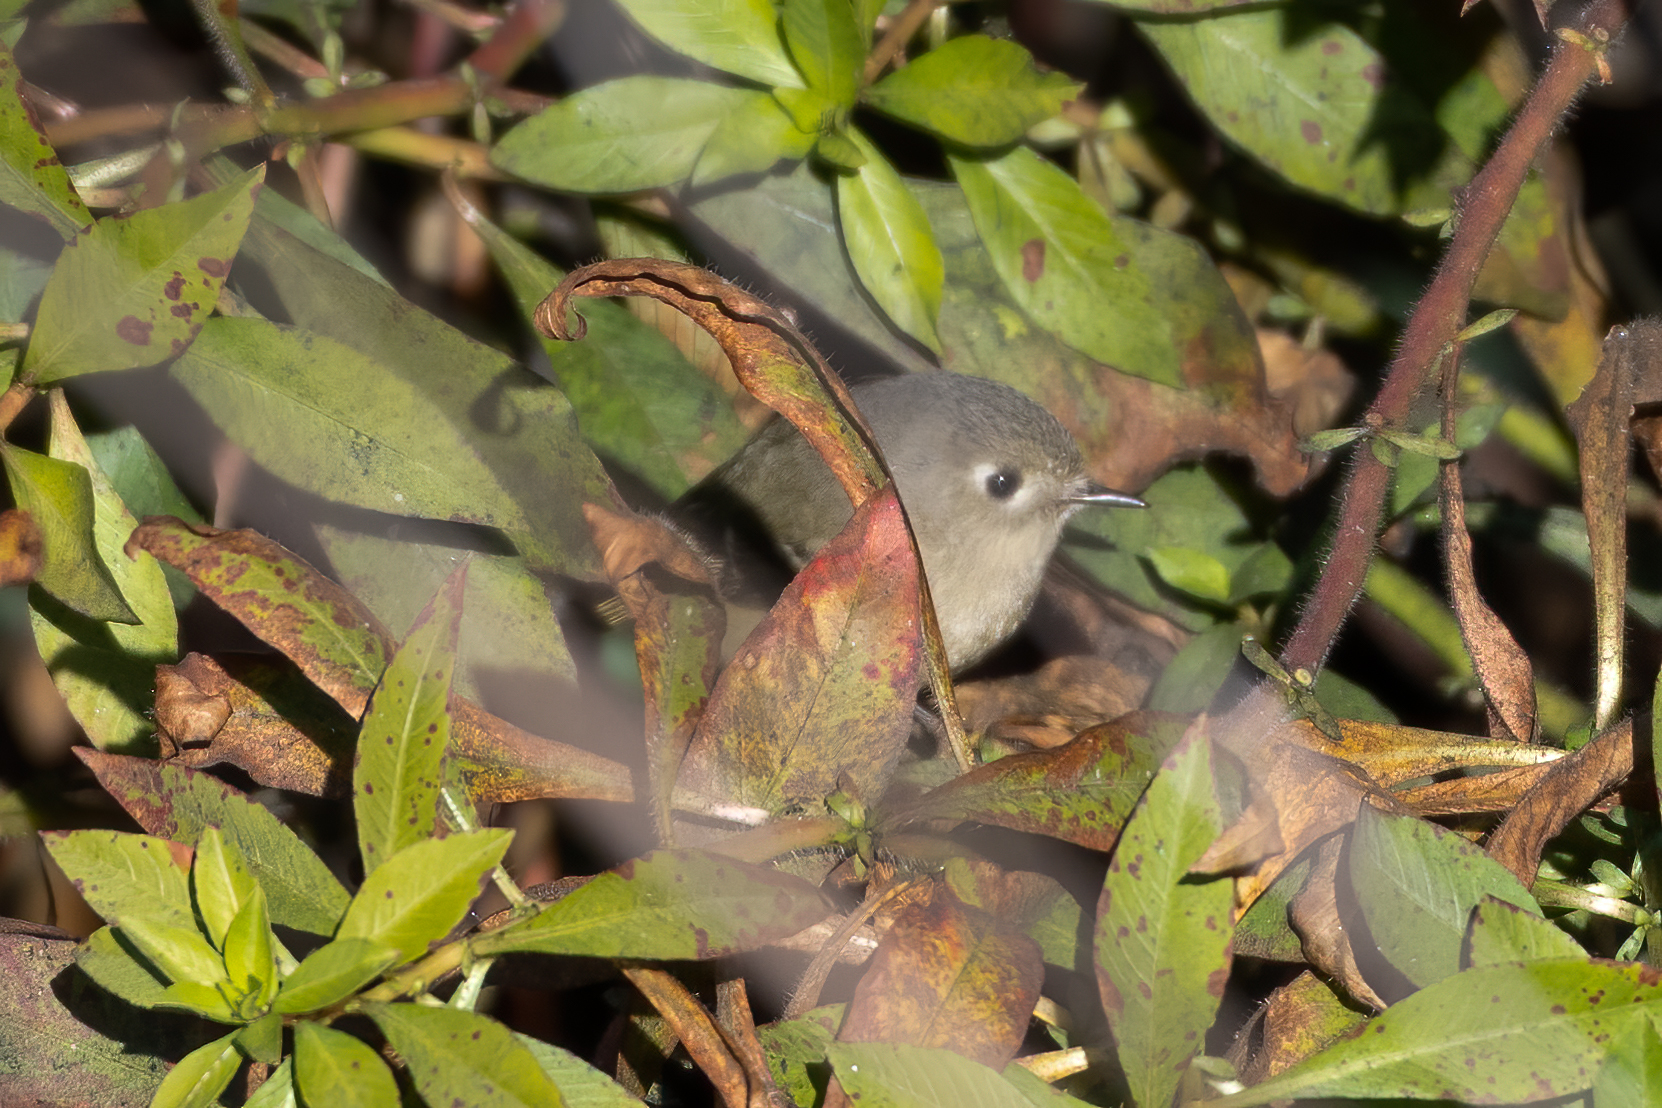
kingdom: Animalia
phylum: Chordata
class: Aves
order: Passeriformes
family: Regulidae
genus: Regulus
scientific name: Regulus calendula
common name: Ruby-crowned kinglet
